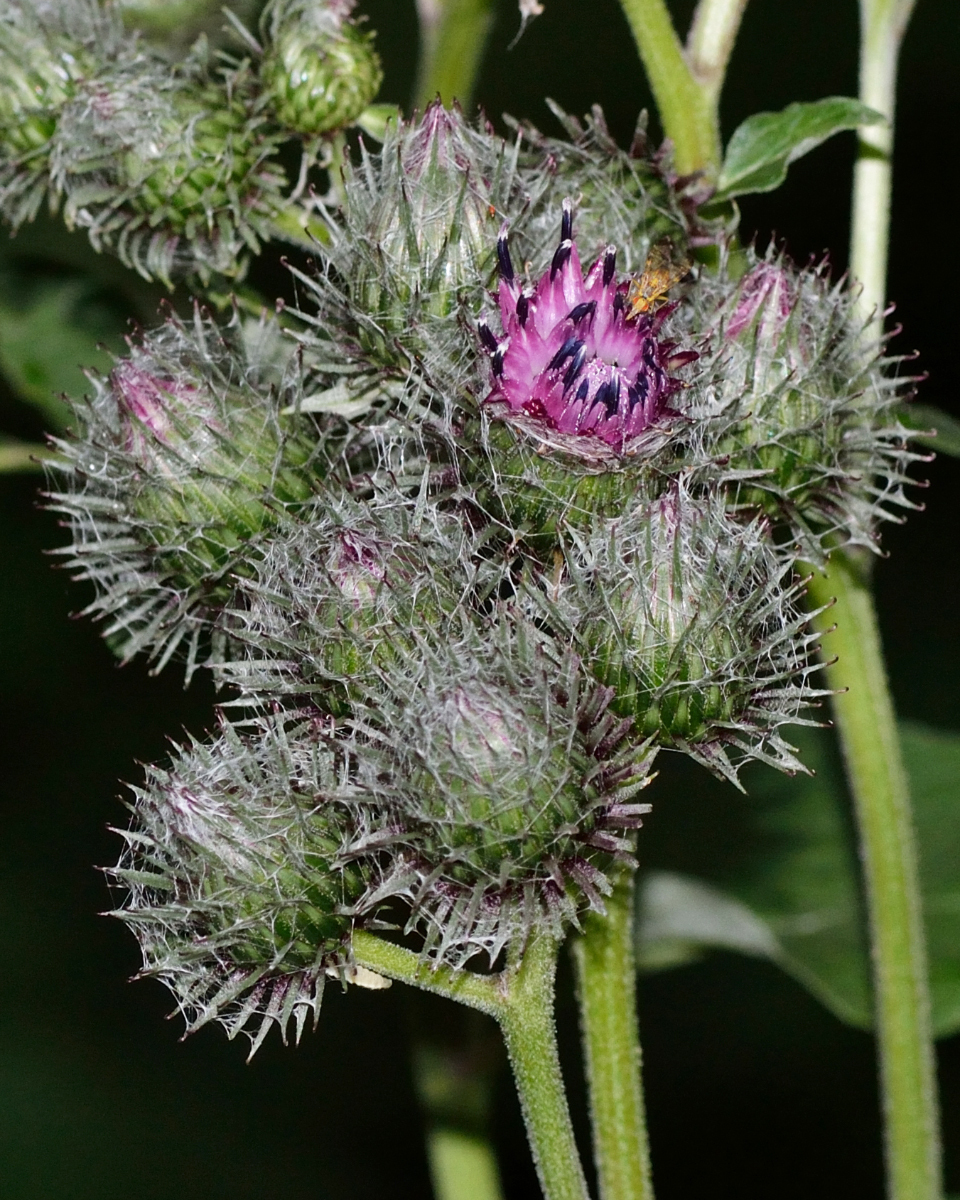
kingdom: Plantae
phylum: Tracheophyta
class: Magnoliopsida
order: Asterales
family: Asteraceae
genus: Arctium
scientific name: Arctium tomentosum
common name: Woolly burdock
